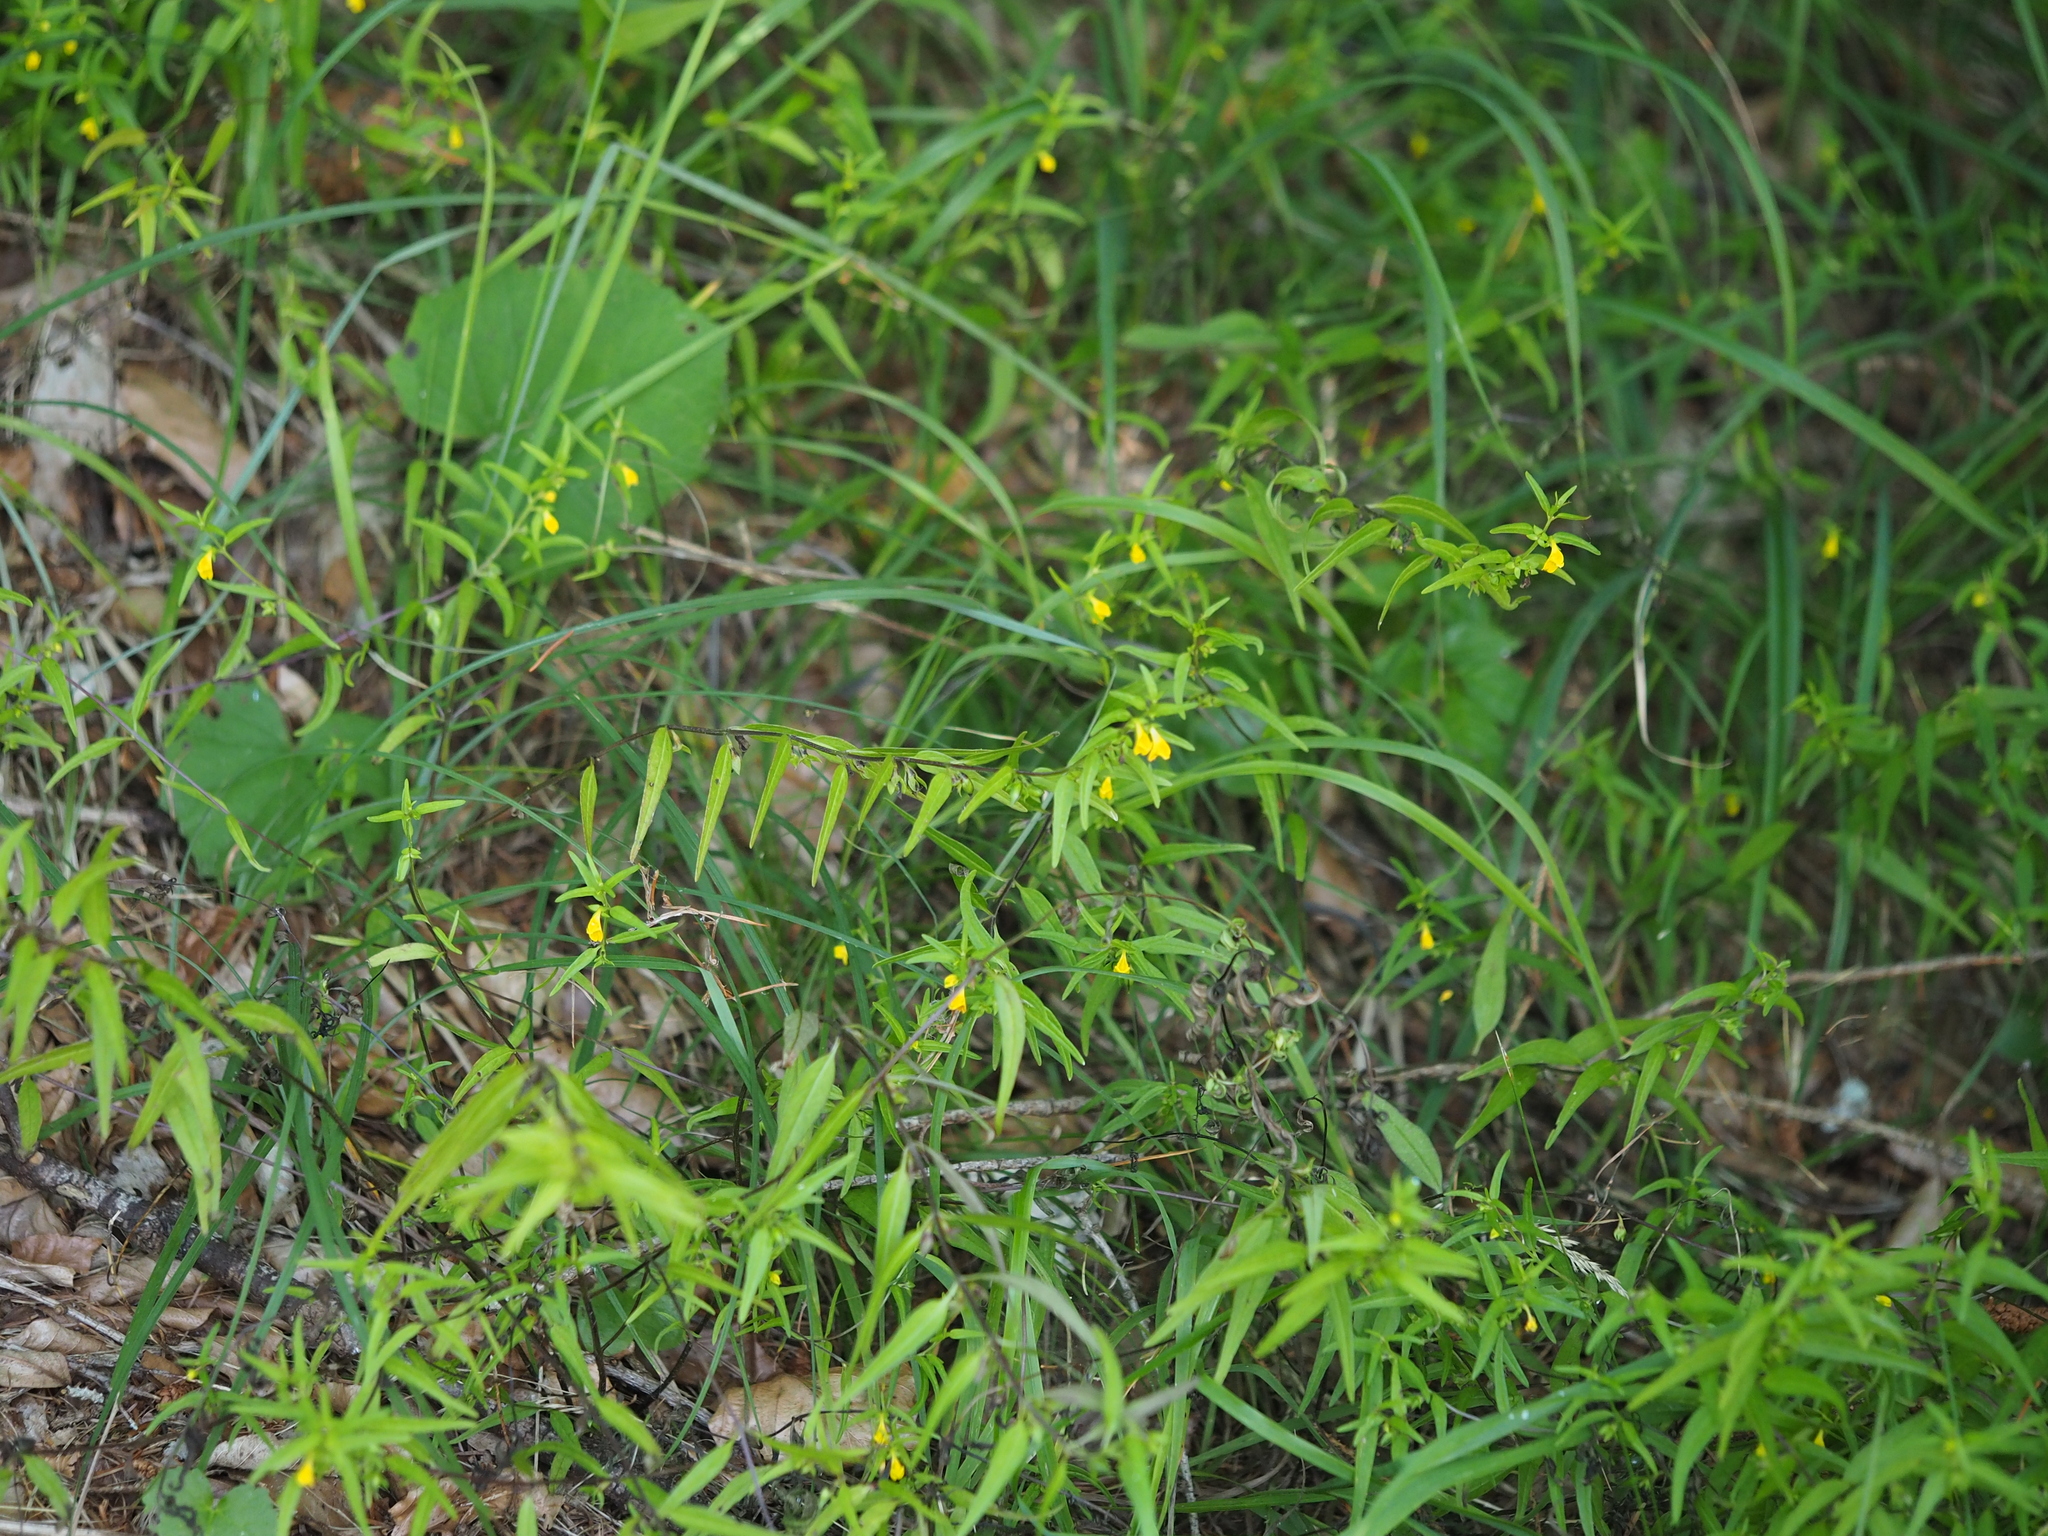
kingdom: Plantae
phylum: Tracheophyta
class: Magnoliopsida
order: Lamiales
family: Orobanchaceae
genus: Melampyrum
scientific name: Melampyrum sylvaticum
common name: Small cow-wheat
